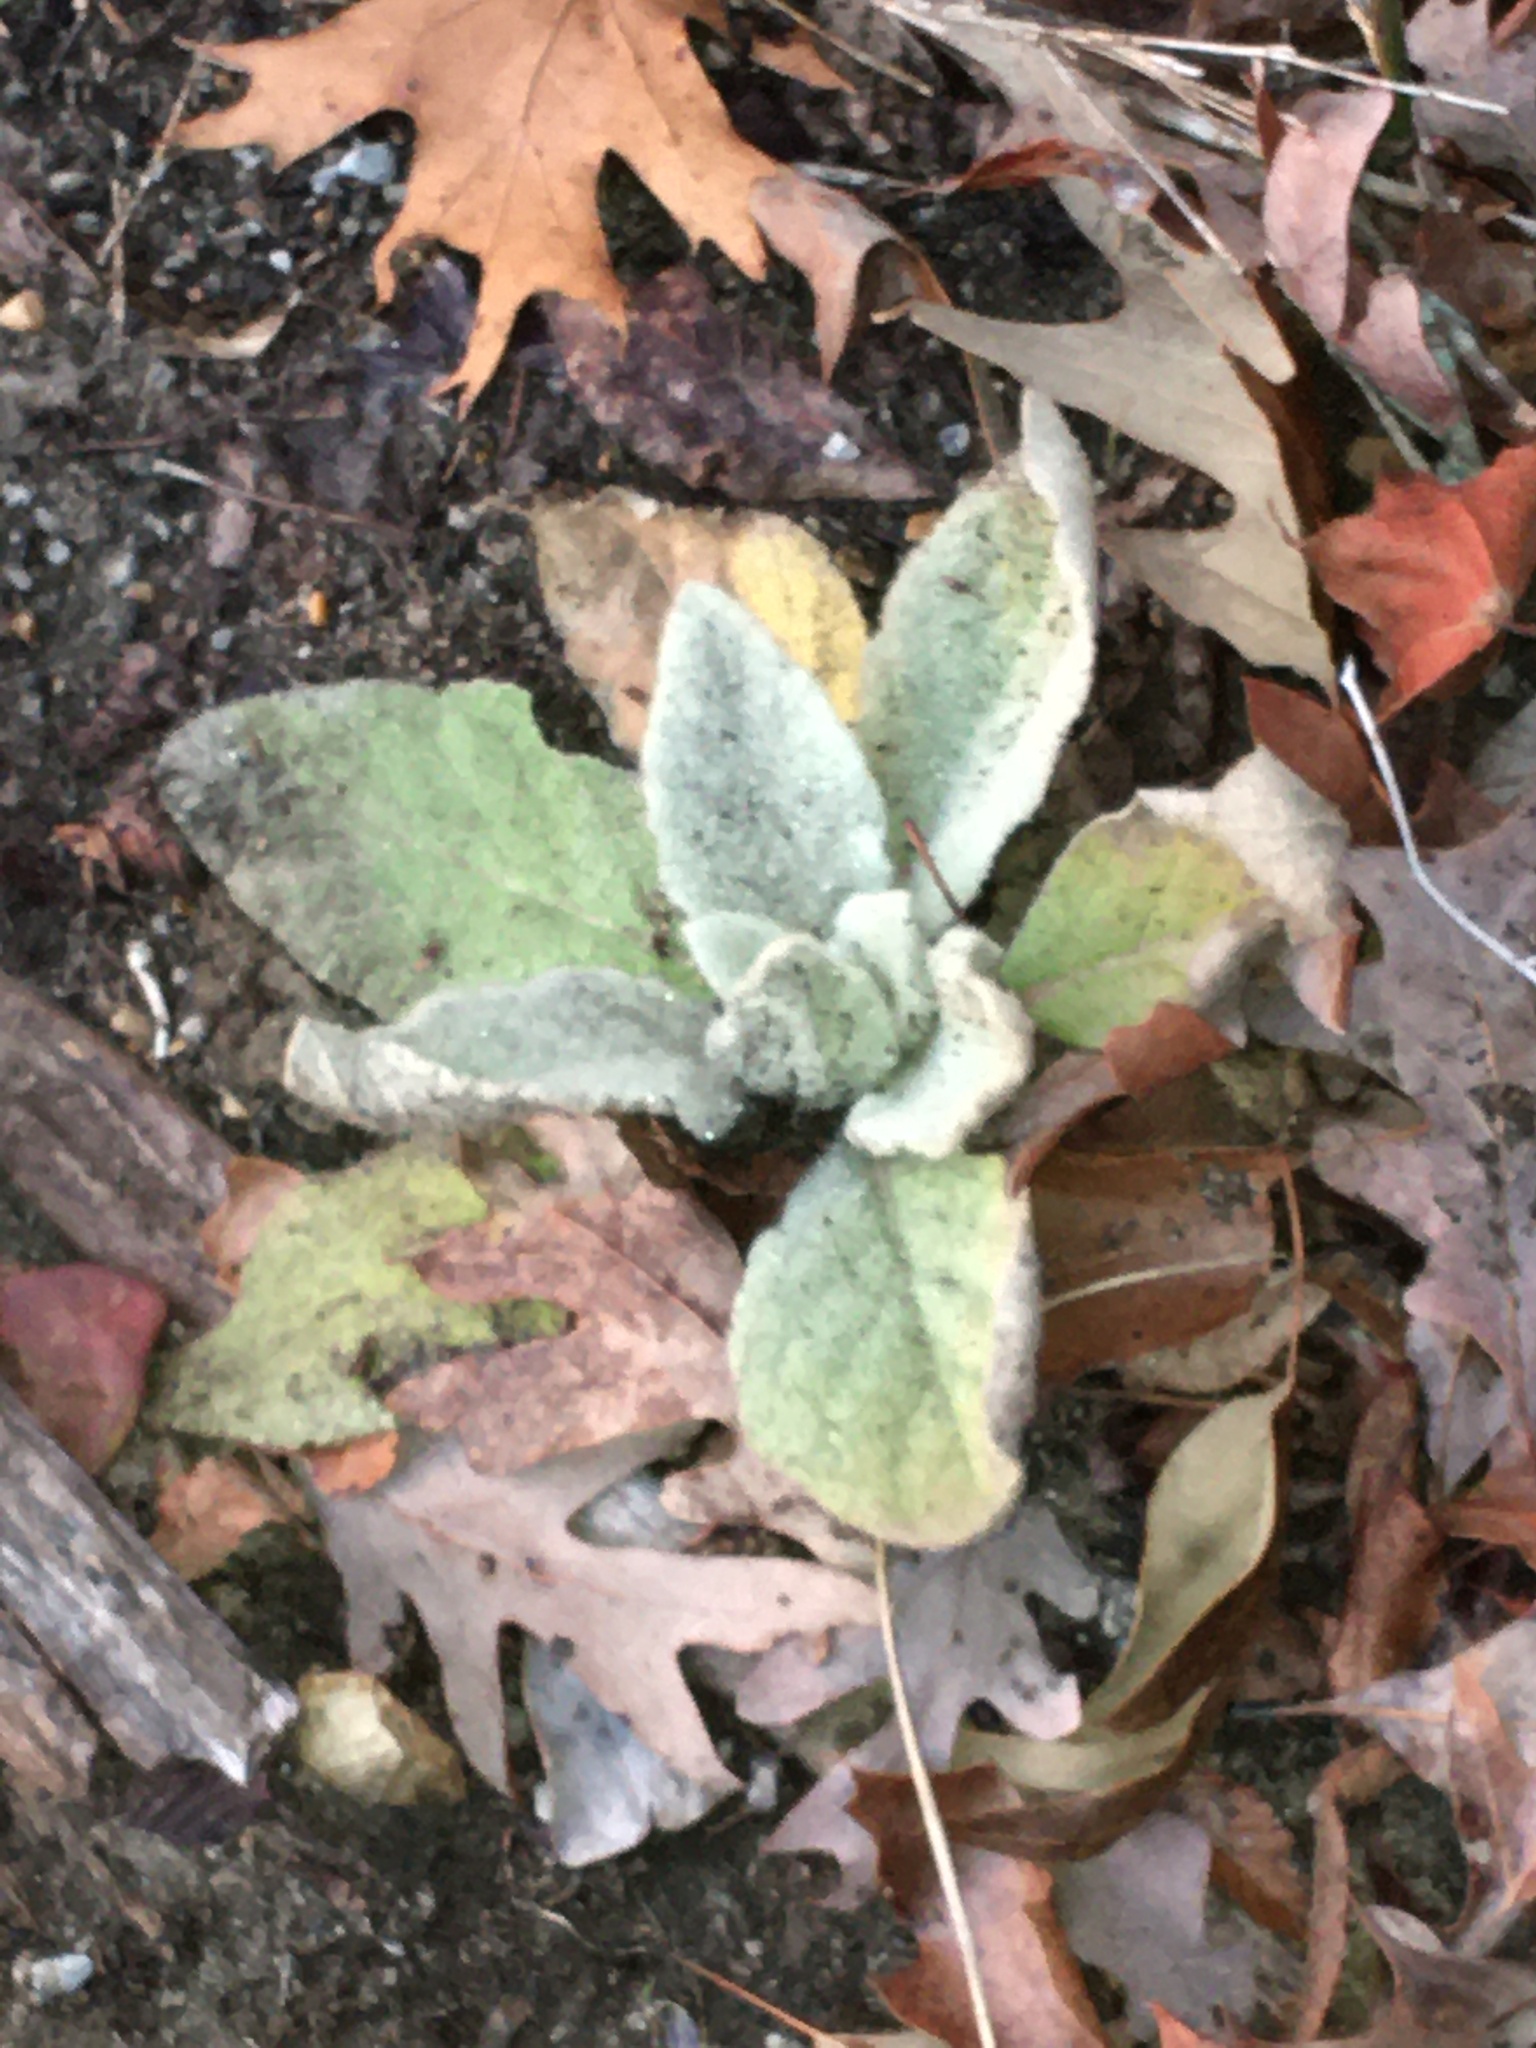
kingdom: Plantae
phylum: Tracheophyta
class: Magnoliopsida
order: Lamiales
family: Scrophulariaceae
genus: Verbascum
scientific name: Verbascum thapsus
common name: Common mullein
